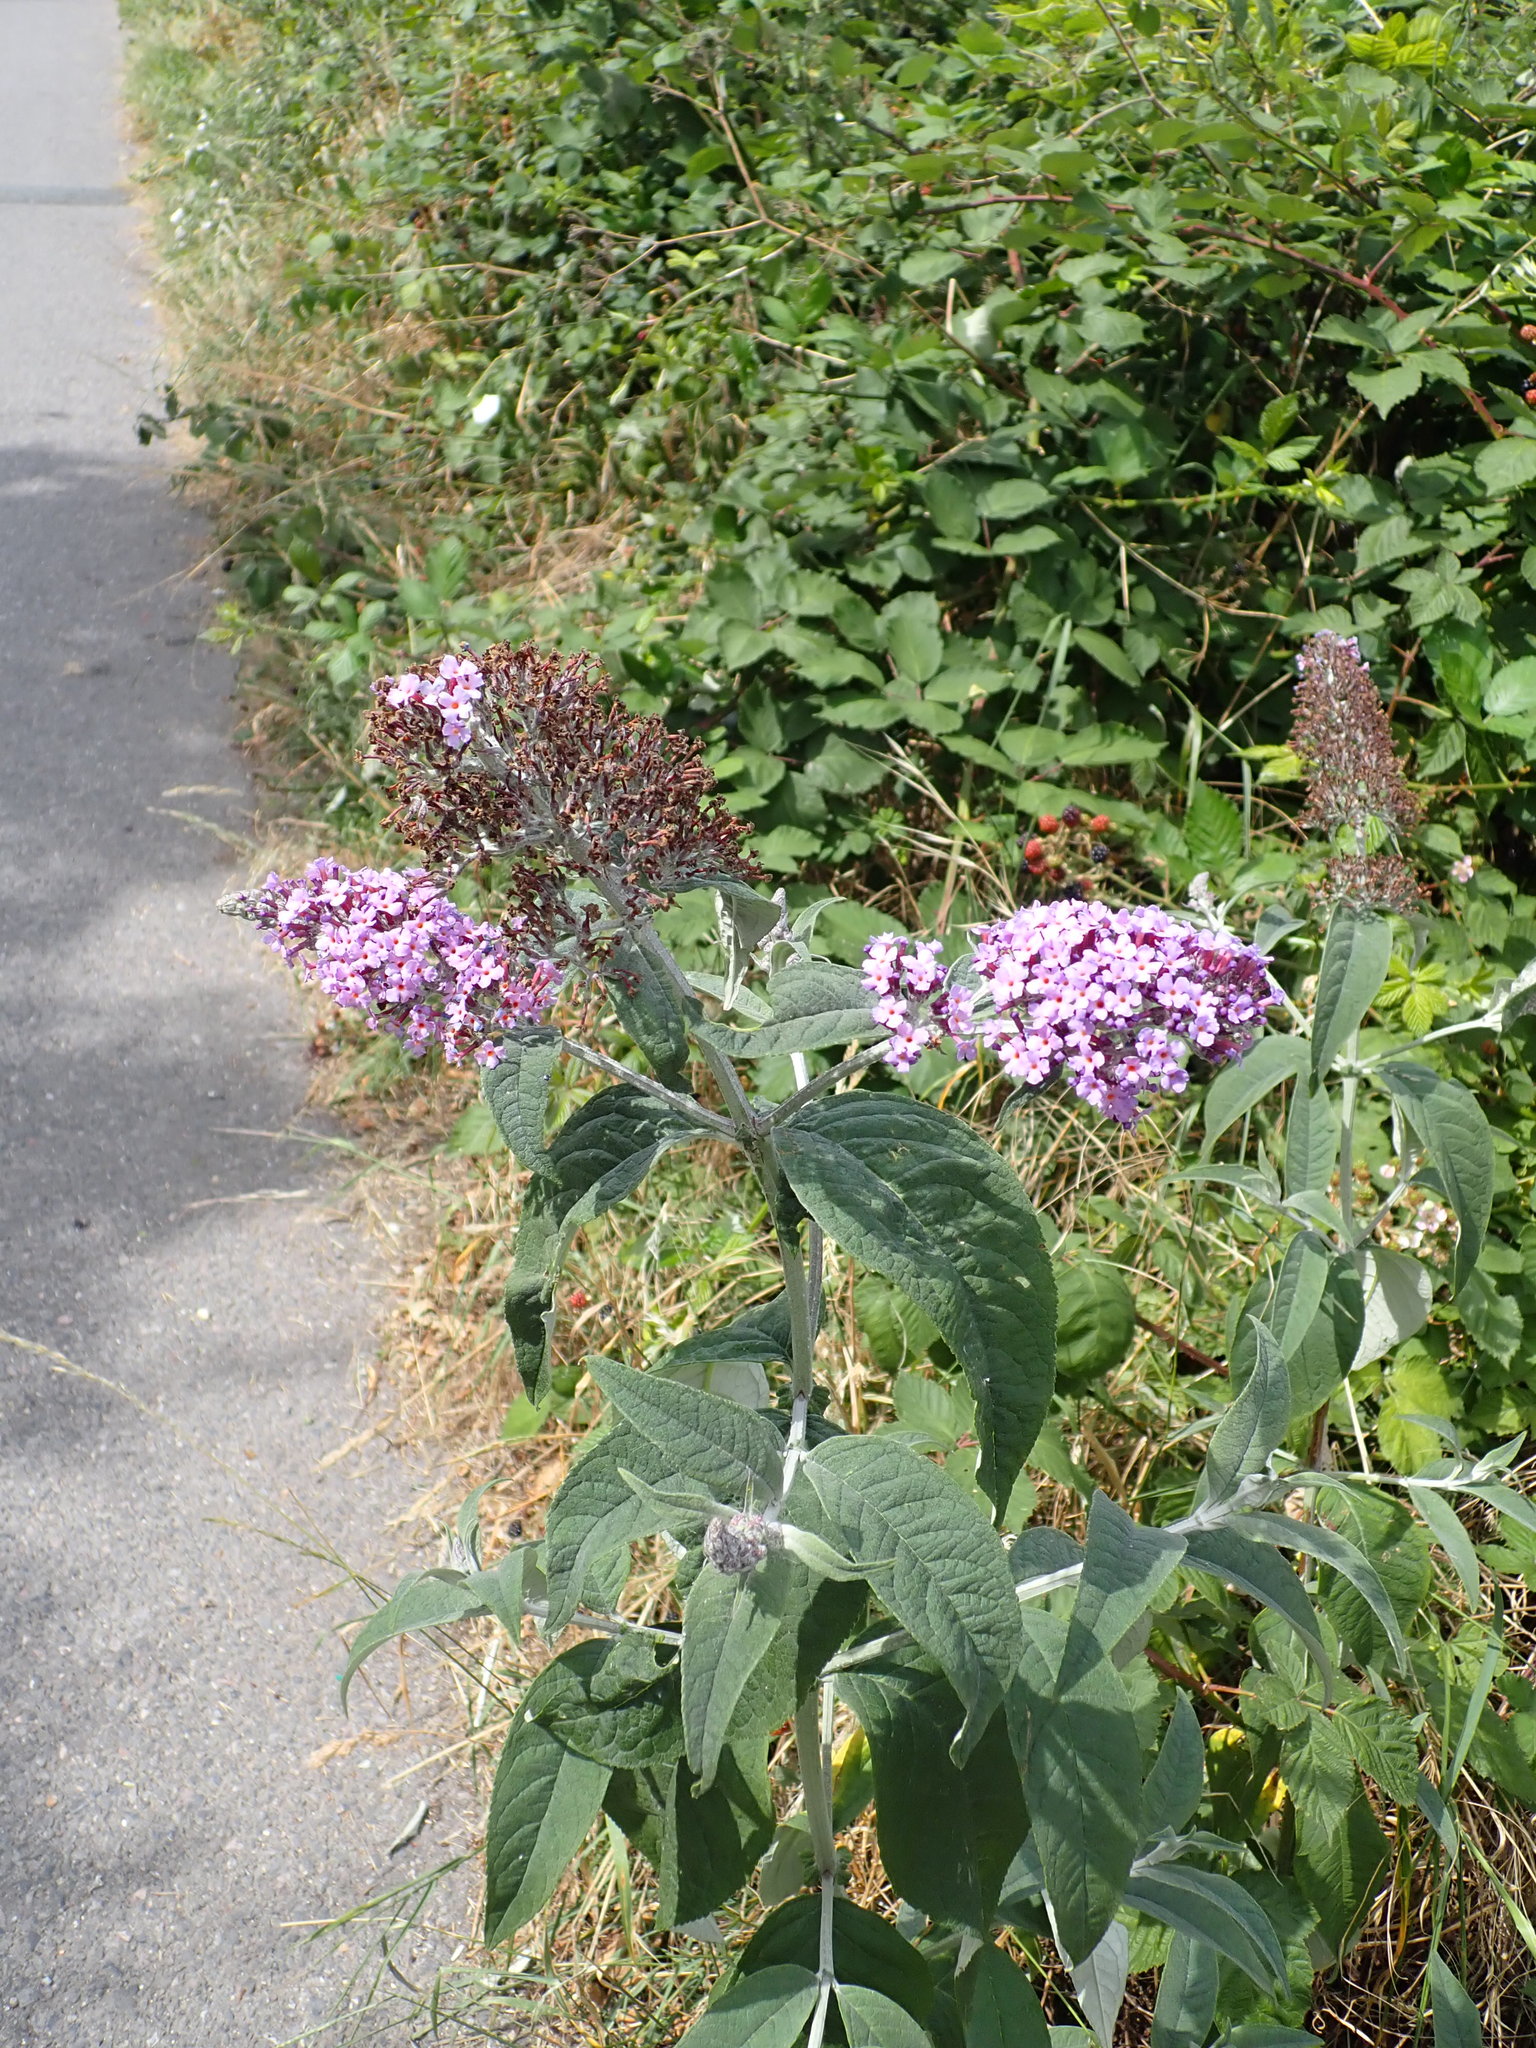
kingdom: Plantae
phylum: Tracheophyta
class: Magnoliopsida
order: Lamiales
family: Scrophulariaceae
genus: Buddleja
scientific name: Buddleja davidii
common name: Butterfly-bush
